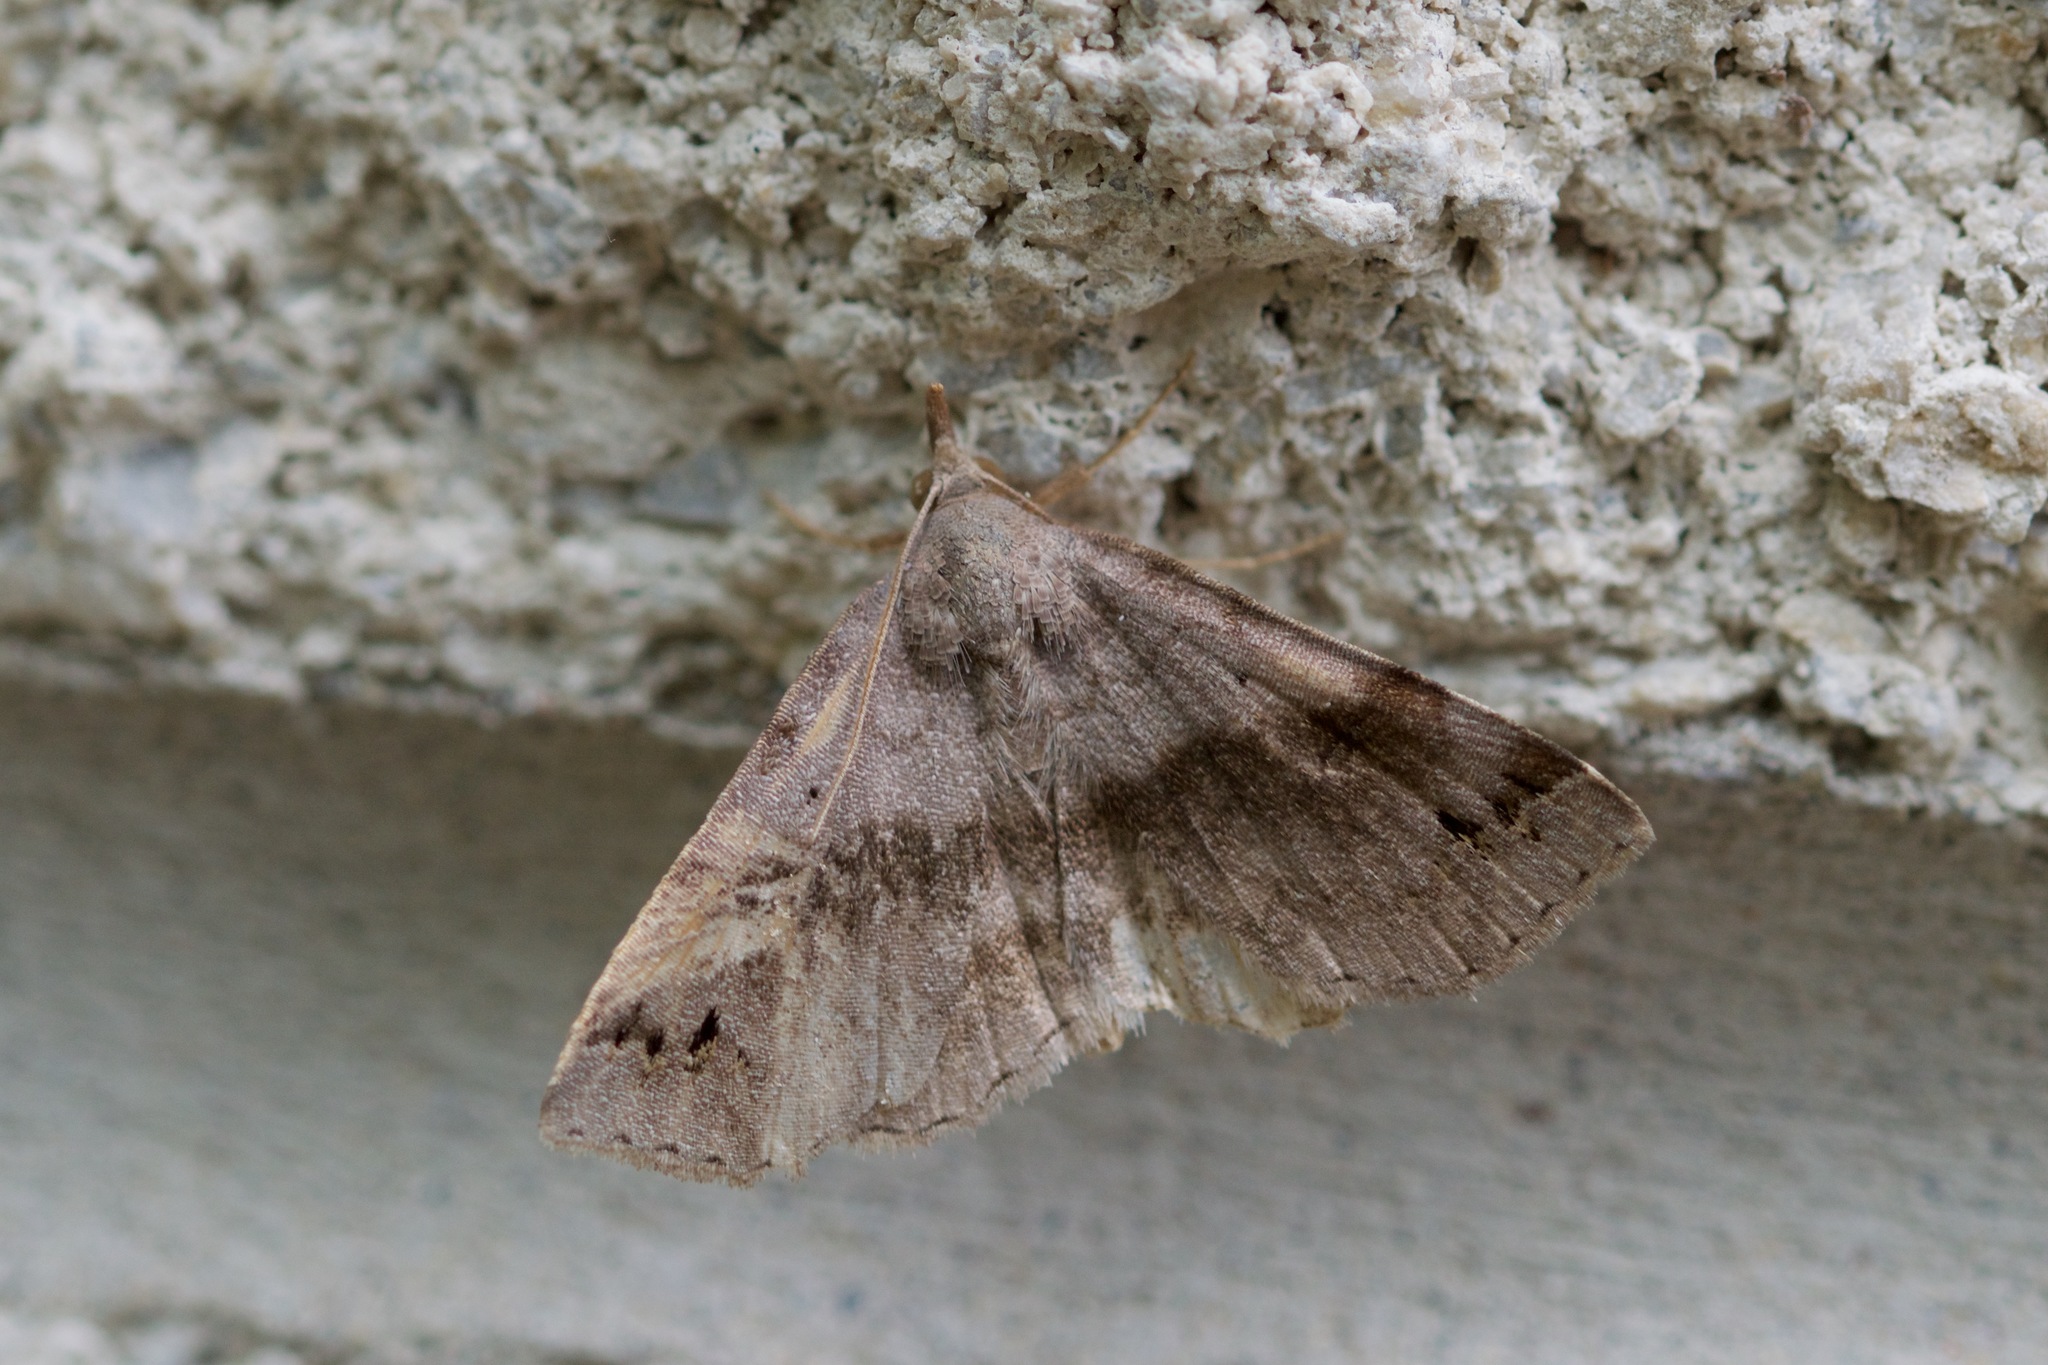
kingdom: Animalia
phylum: Arthropoda
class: Insecta
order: Lepidoptera
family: Erebidae
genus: Spargaloma
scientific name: Spargaloma sexpunctata
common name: Six-spotted gray
